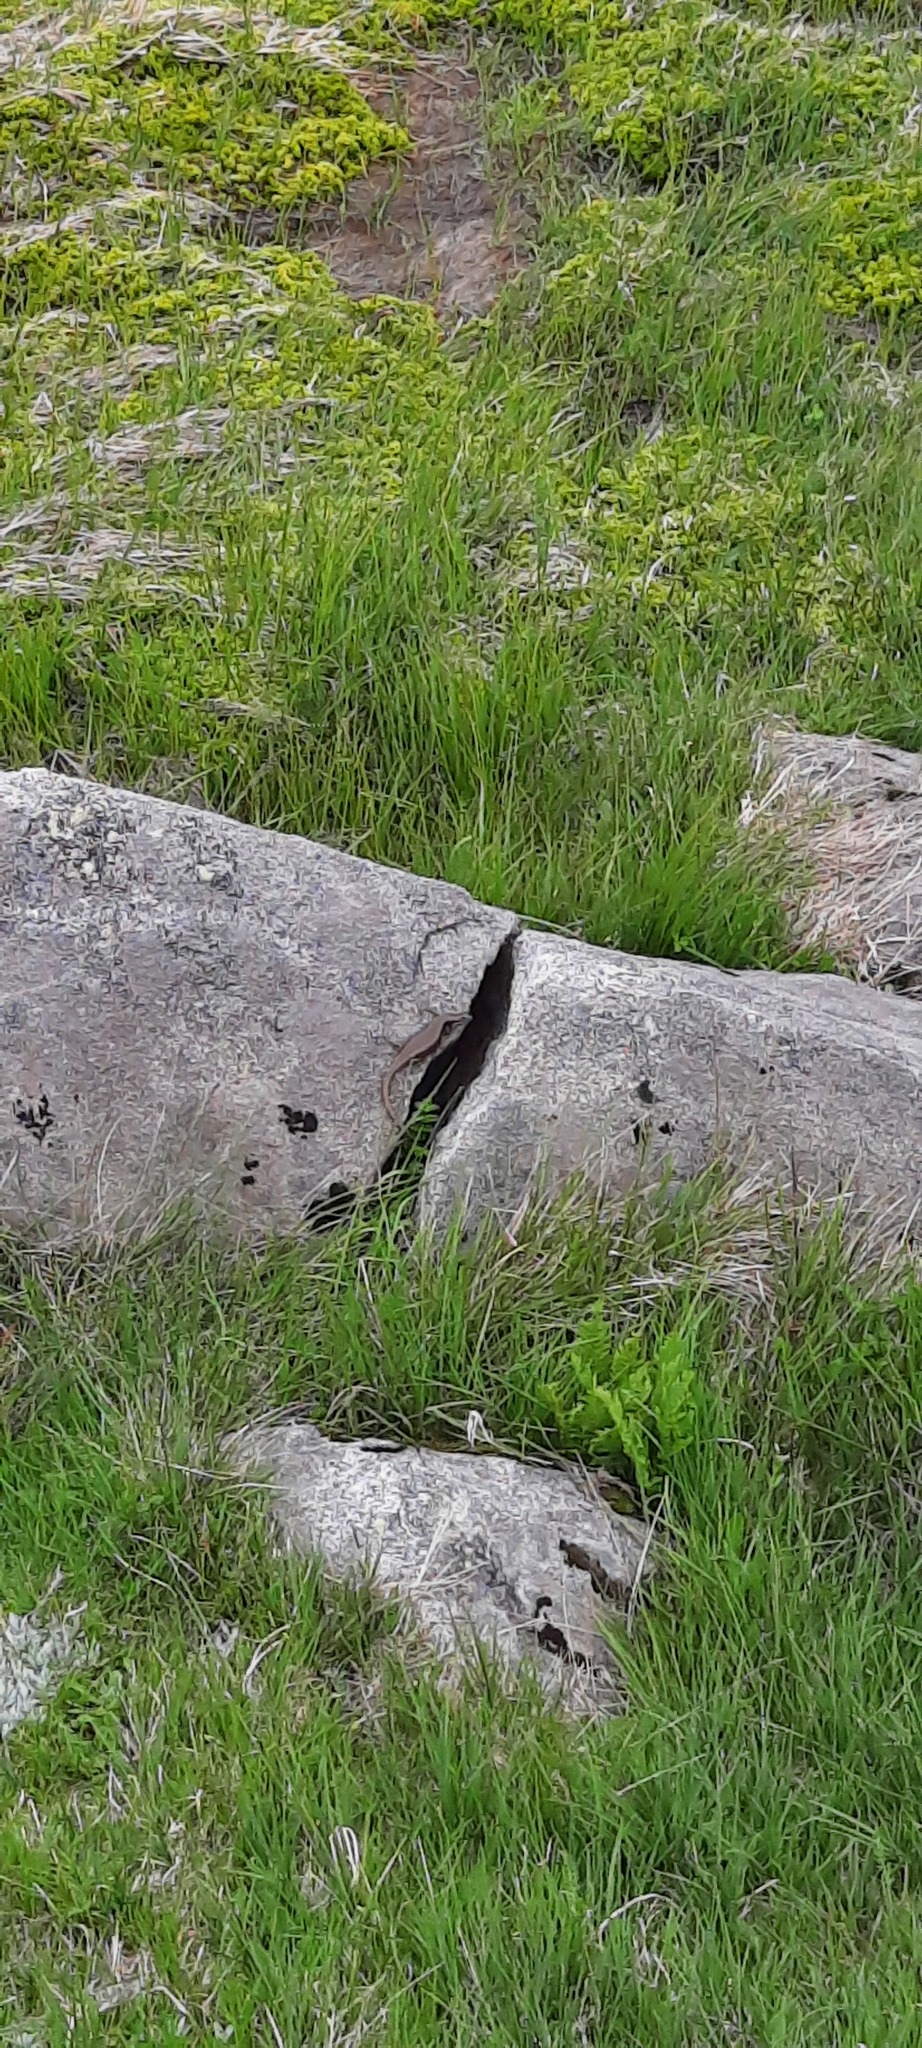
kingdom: Animalia
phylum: Chordata
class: Squamata
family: Scincidae
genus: Eulamprus
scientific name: Eulamprus tympanum
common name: Cool-temperate water-skink
